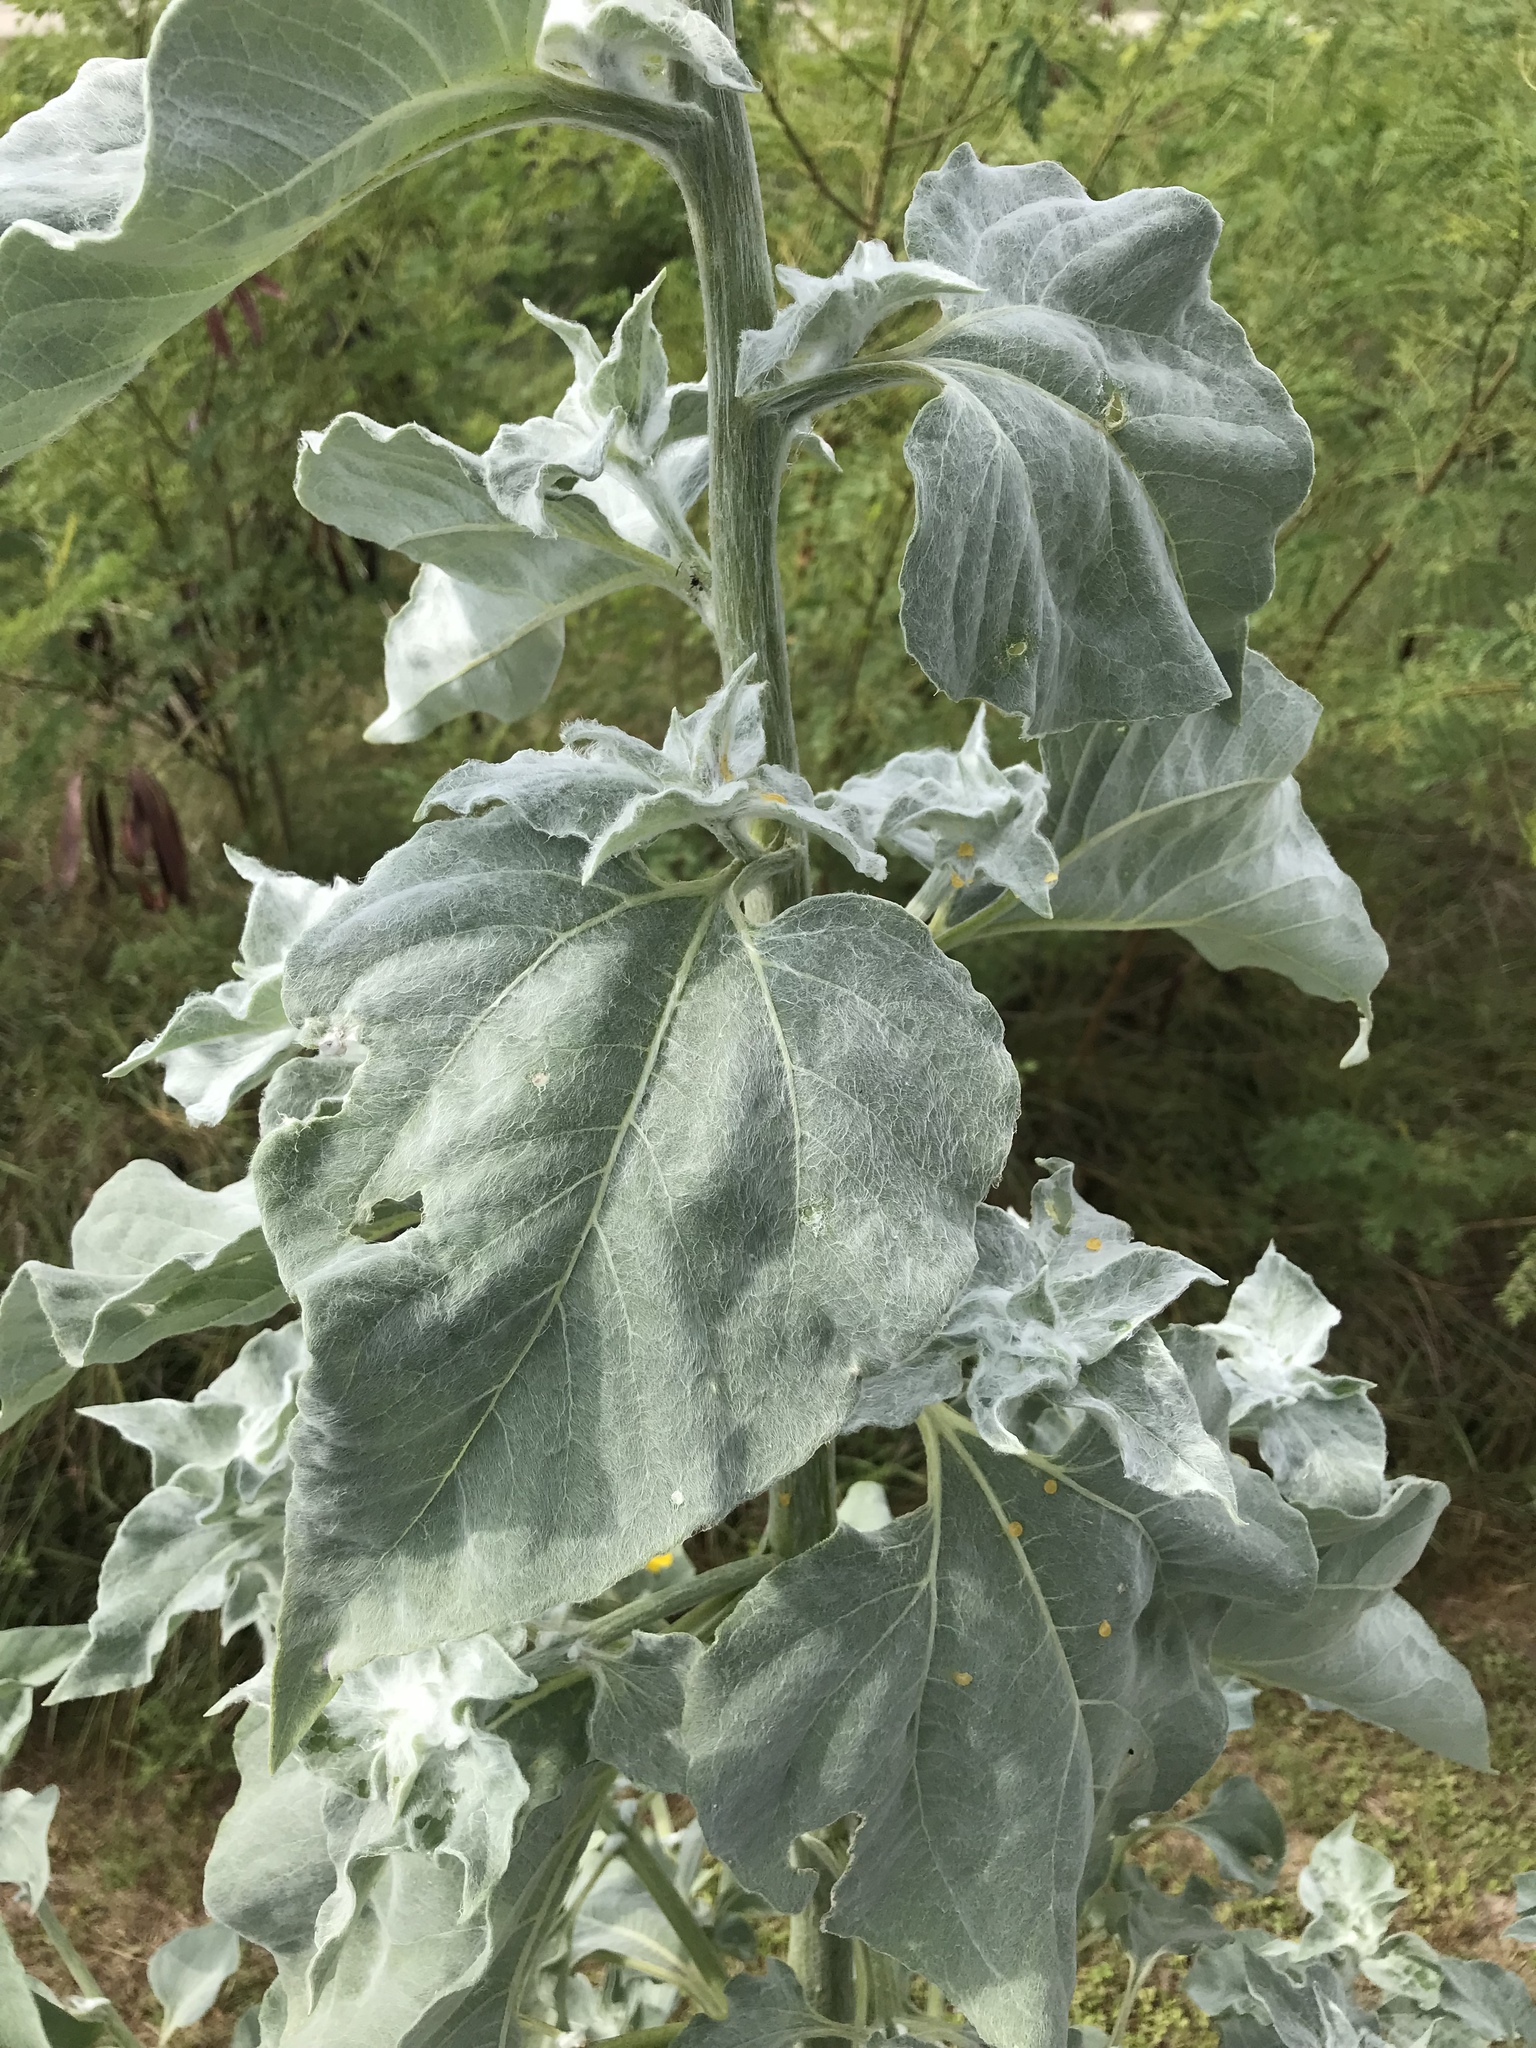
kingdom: Plantae
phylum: Tracheophyta
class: Magnoliopsida
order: Asterales
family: Asteraceae
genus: Helianthus
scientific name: Helianthus argophyllus
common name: Silverleaf sunflower
